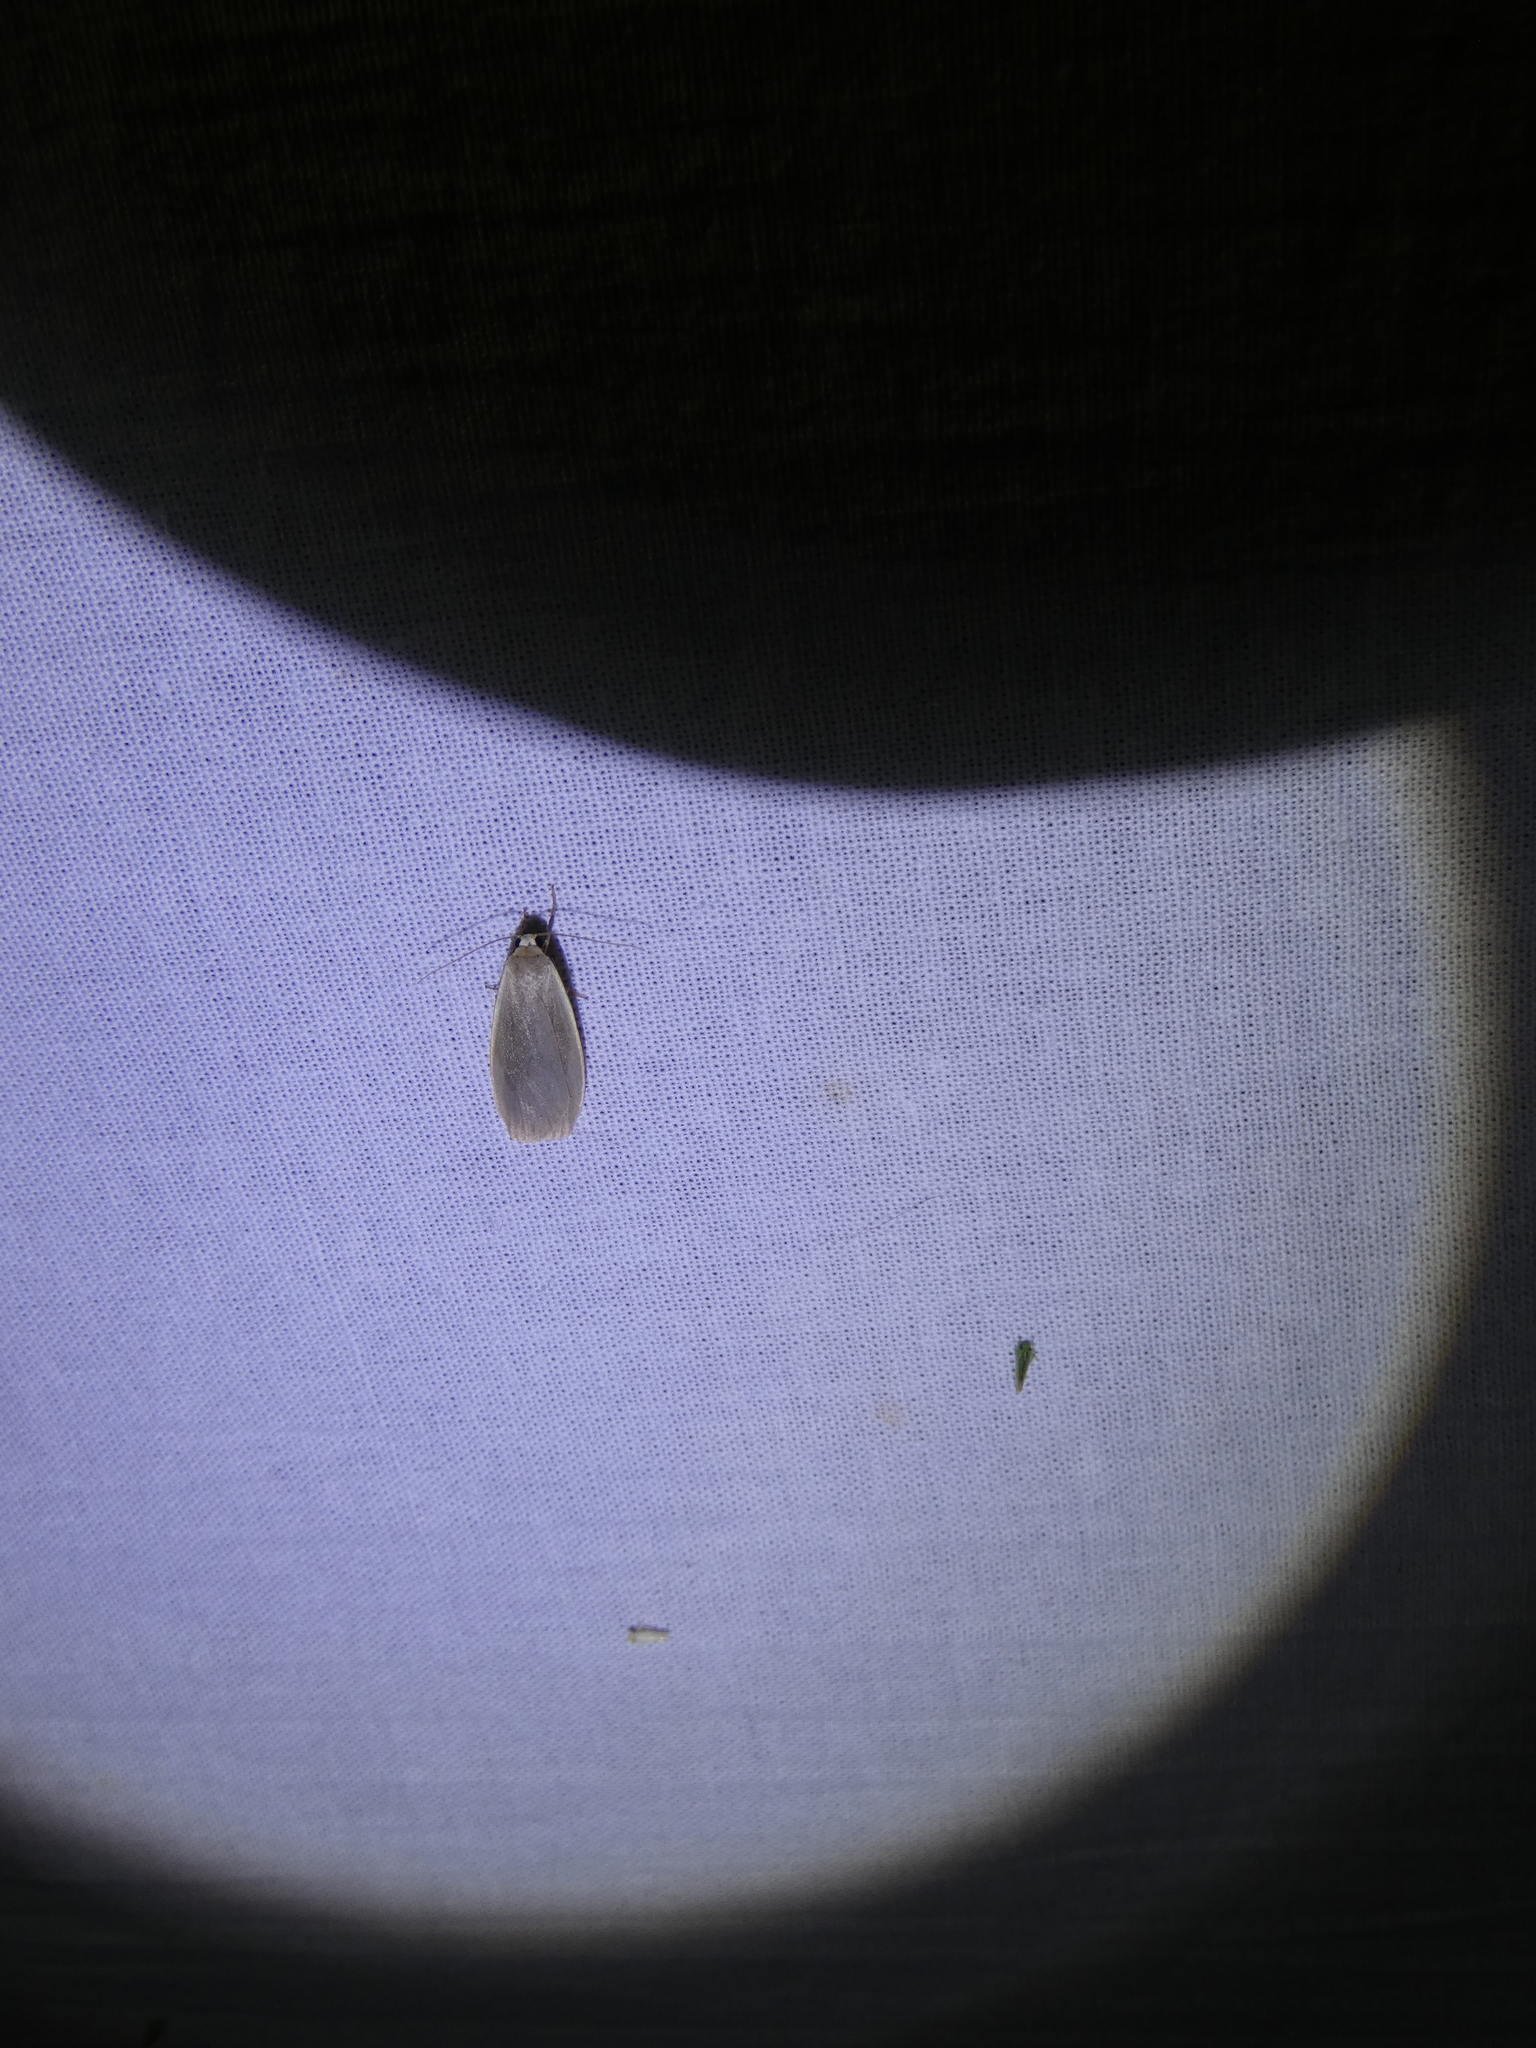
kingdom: Animalia
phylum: Arthropoda
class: Insecta
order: Lepidoptera
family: Erebidae
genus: Collita
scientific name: Collita griseola
